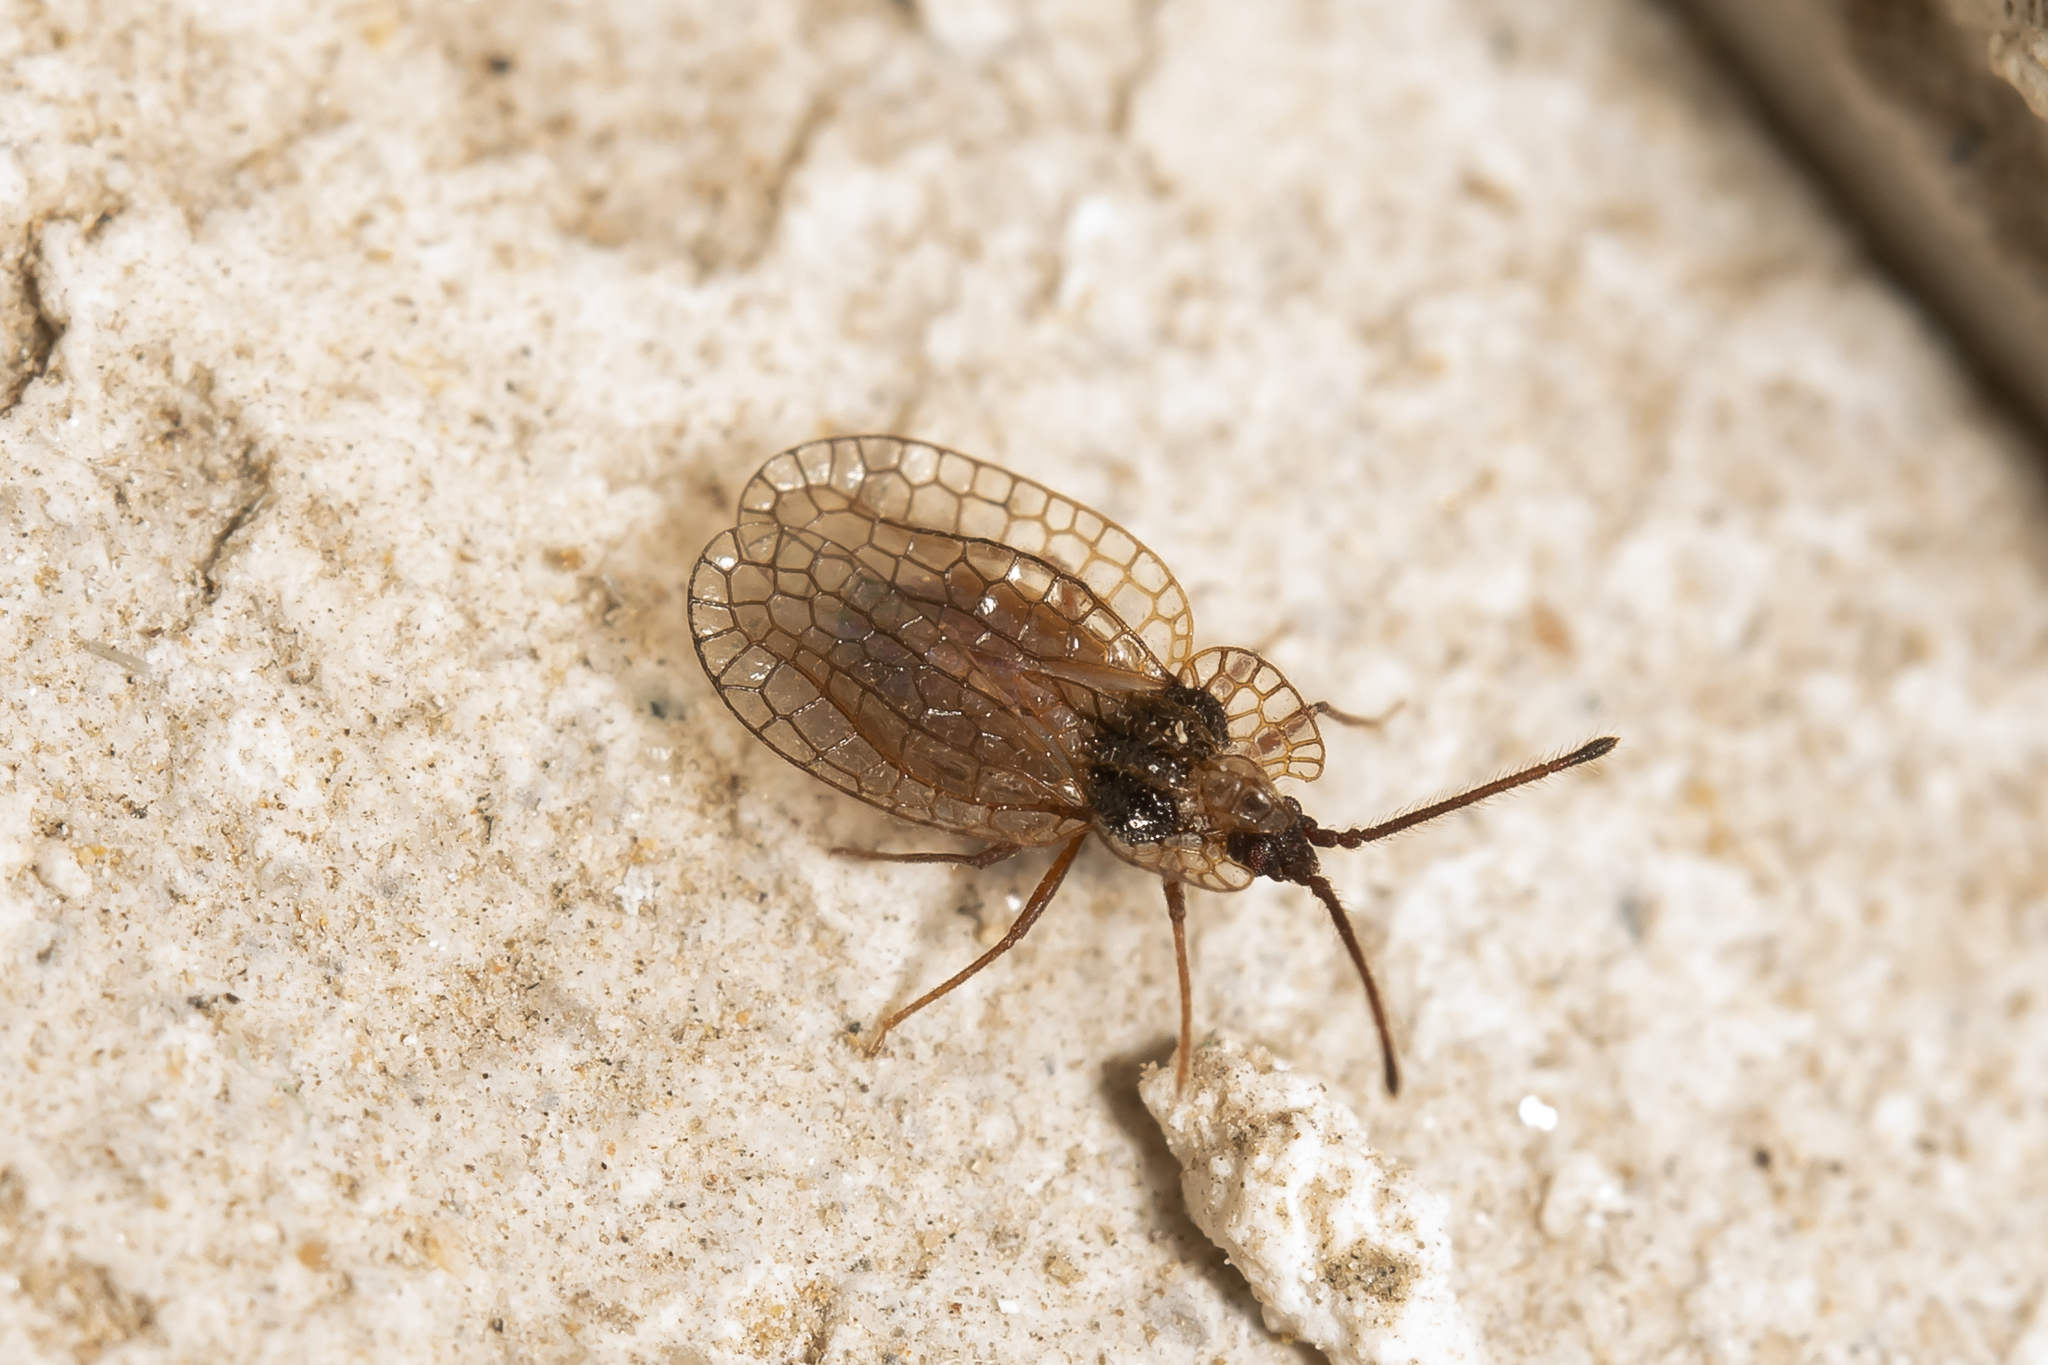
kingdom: Animalia
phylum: Arthropoda
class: Insecta
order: Hemiptera
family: Tingidae
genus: Derephysia
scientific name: Derephysia foliacea
